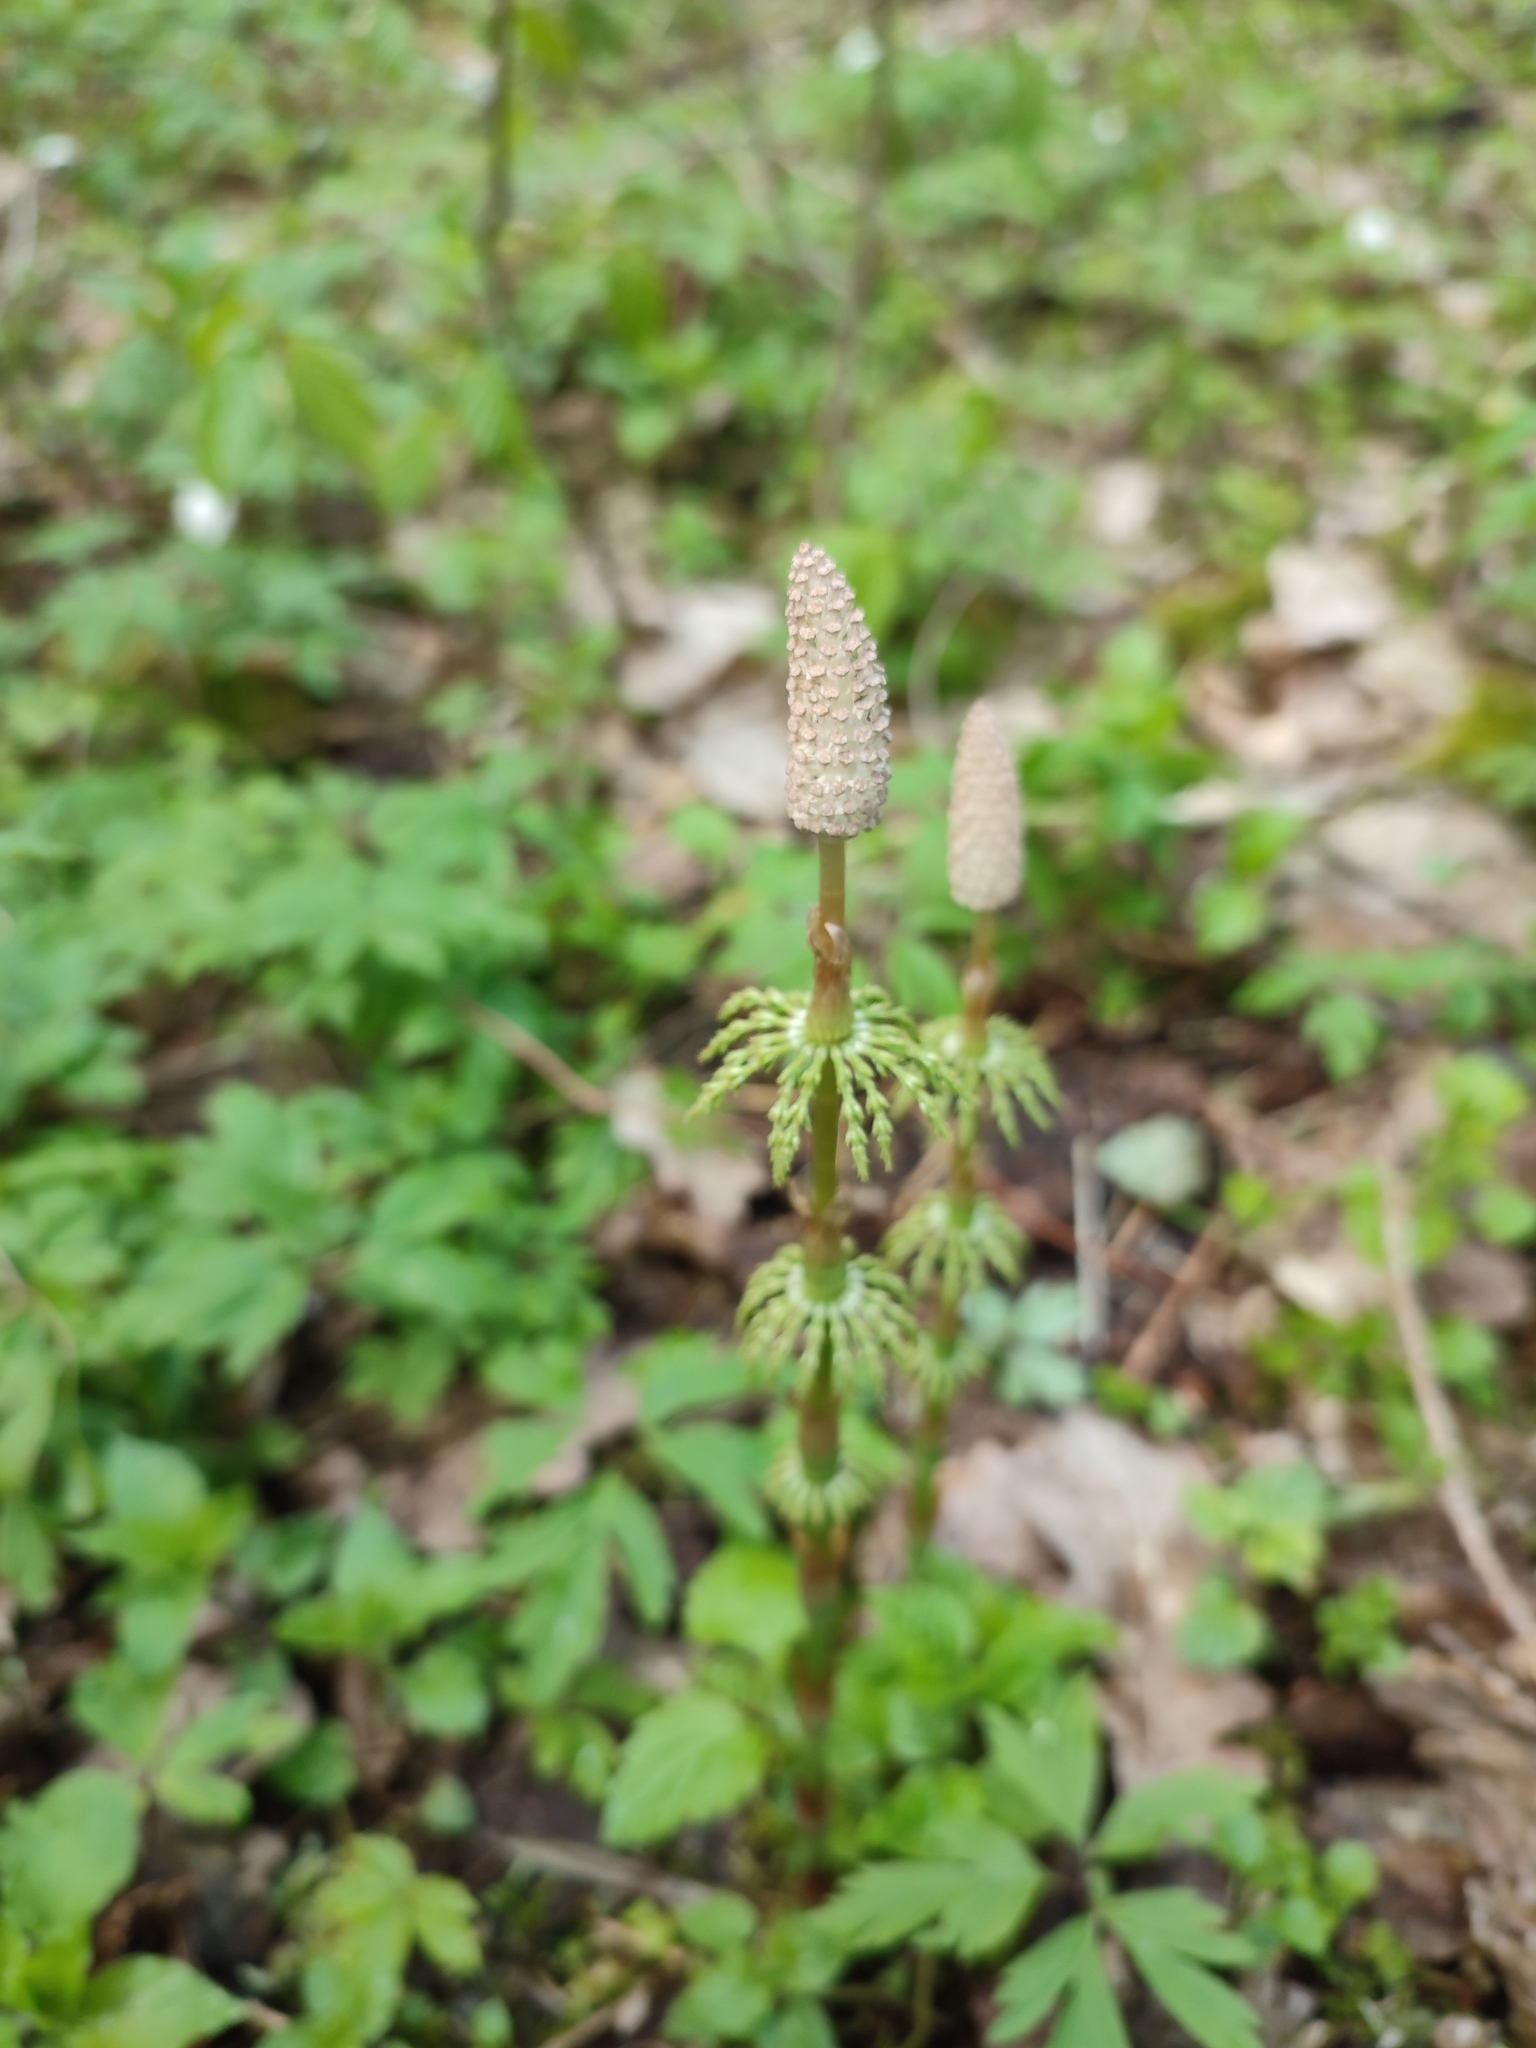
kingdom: Plantae
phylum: Tracheophyta
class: Polypodiopsida
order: Equisetales
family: Equisetaceae
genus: Equisetum
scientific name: Equisetum sylvaticum
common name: Wood horsetail
